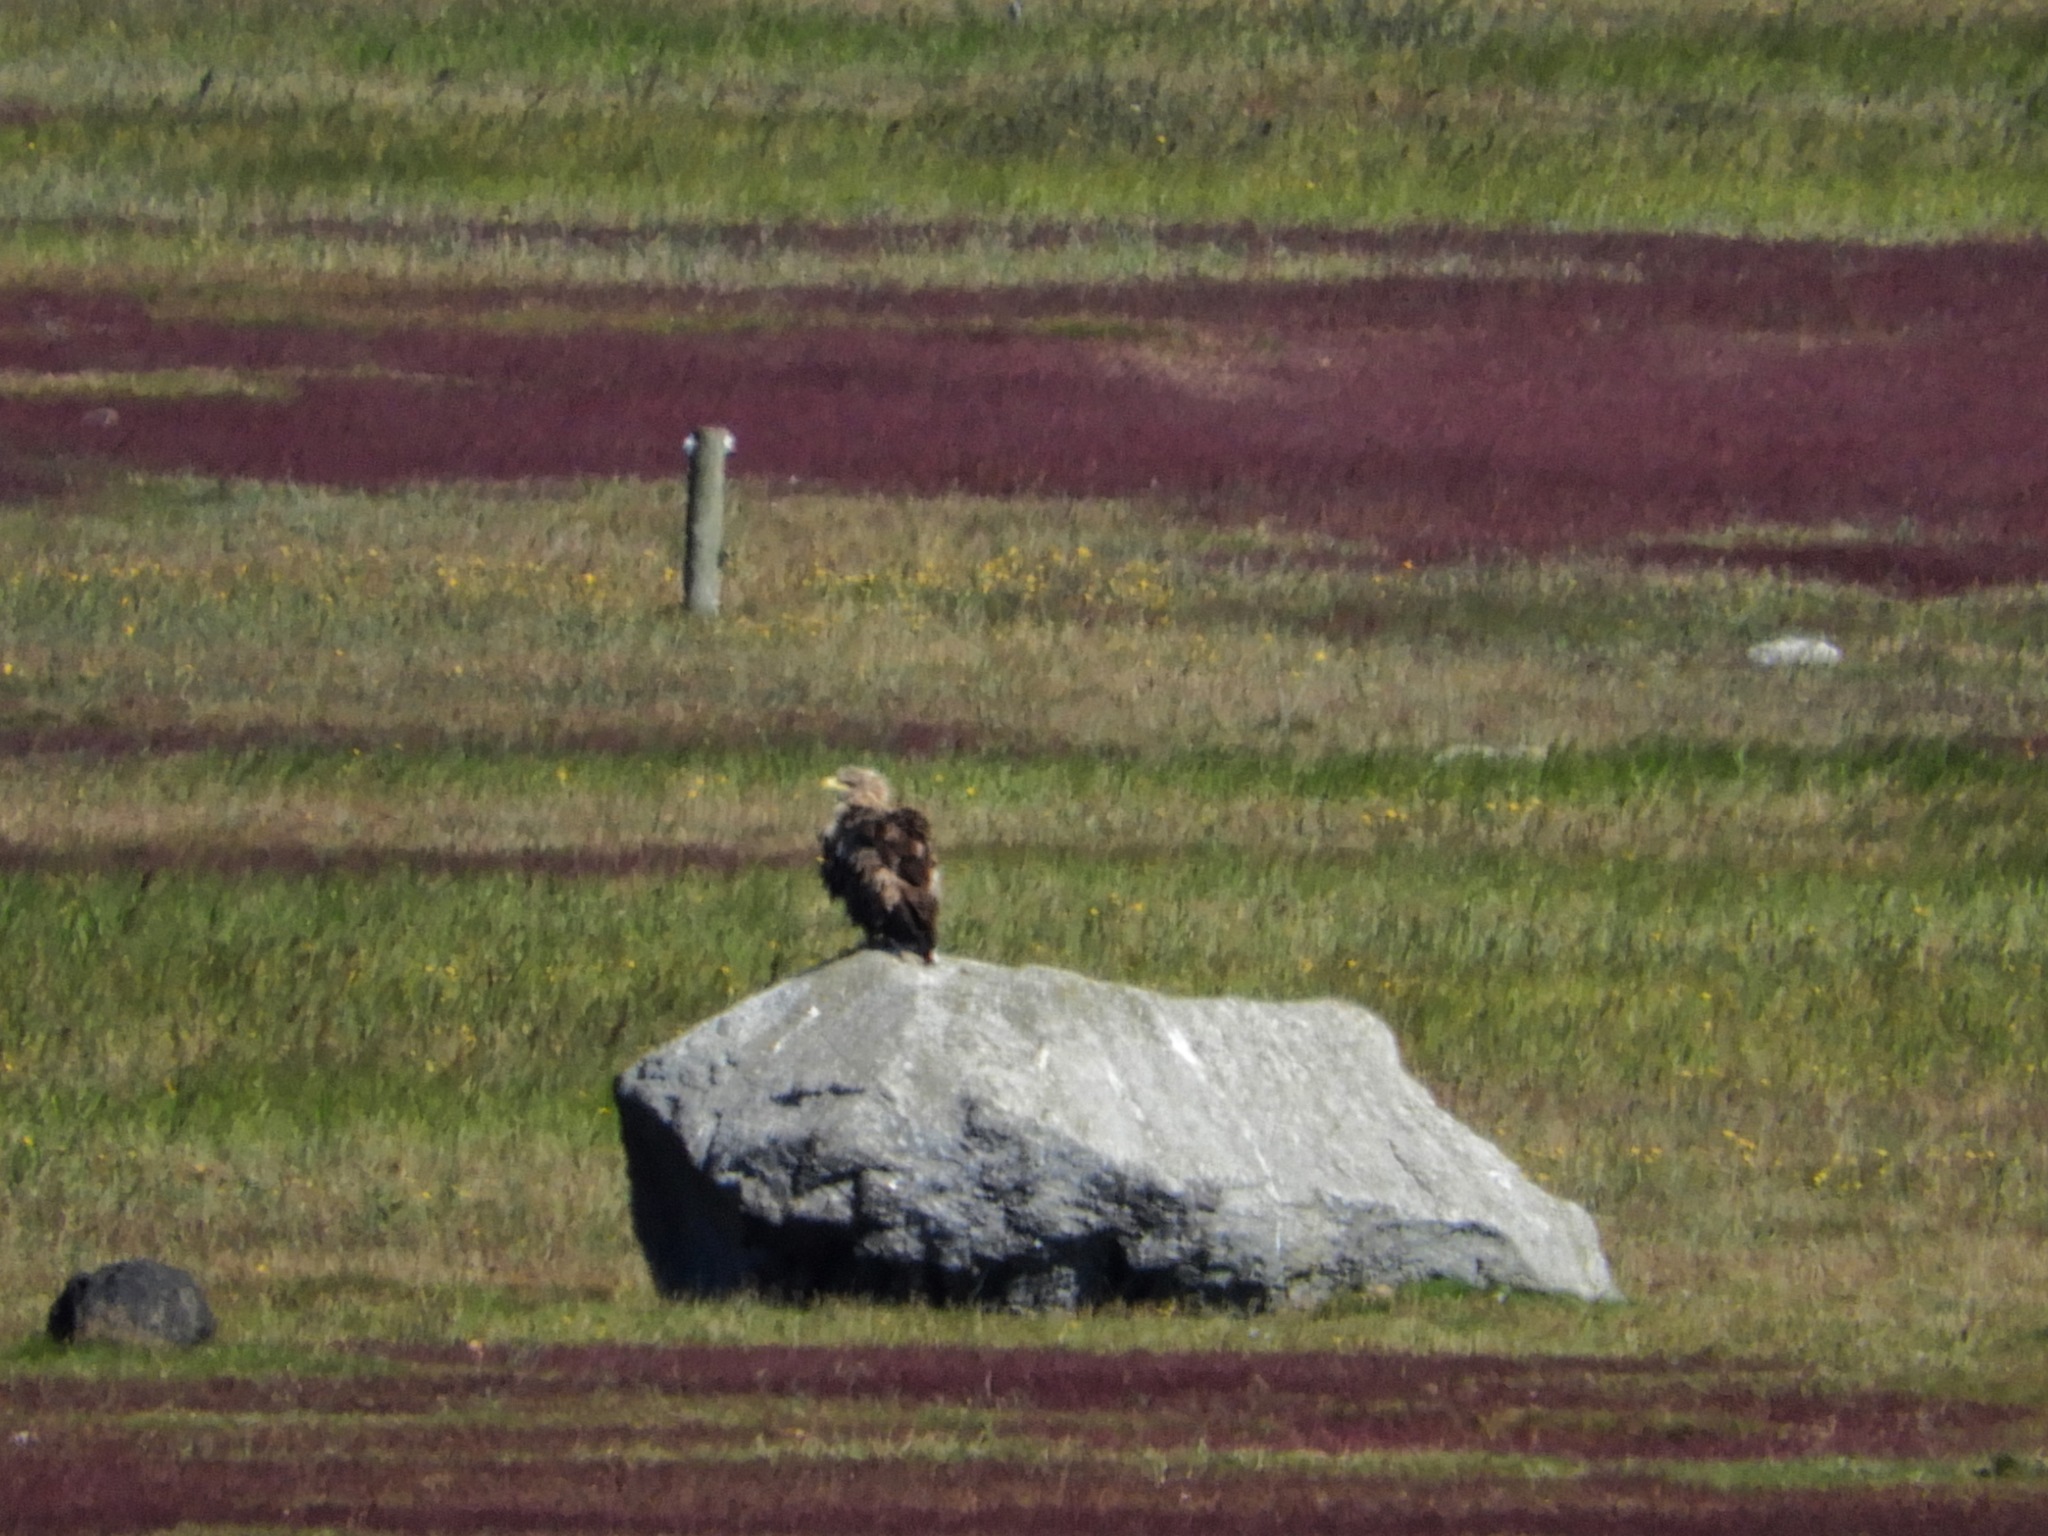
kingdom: Animalia
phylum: Chordata
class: Aves
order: Accipitriformes
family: Accipitridae
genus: Haliaeetus
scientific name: Haliaeetus albicilla
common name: White-tailed eagle
